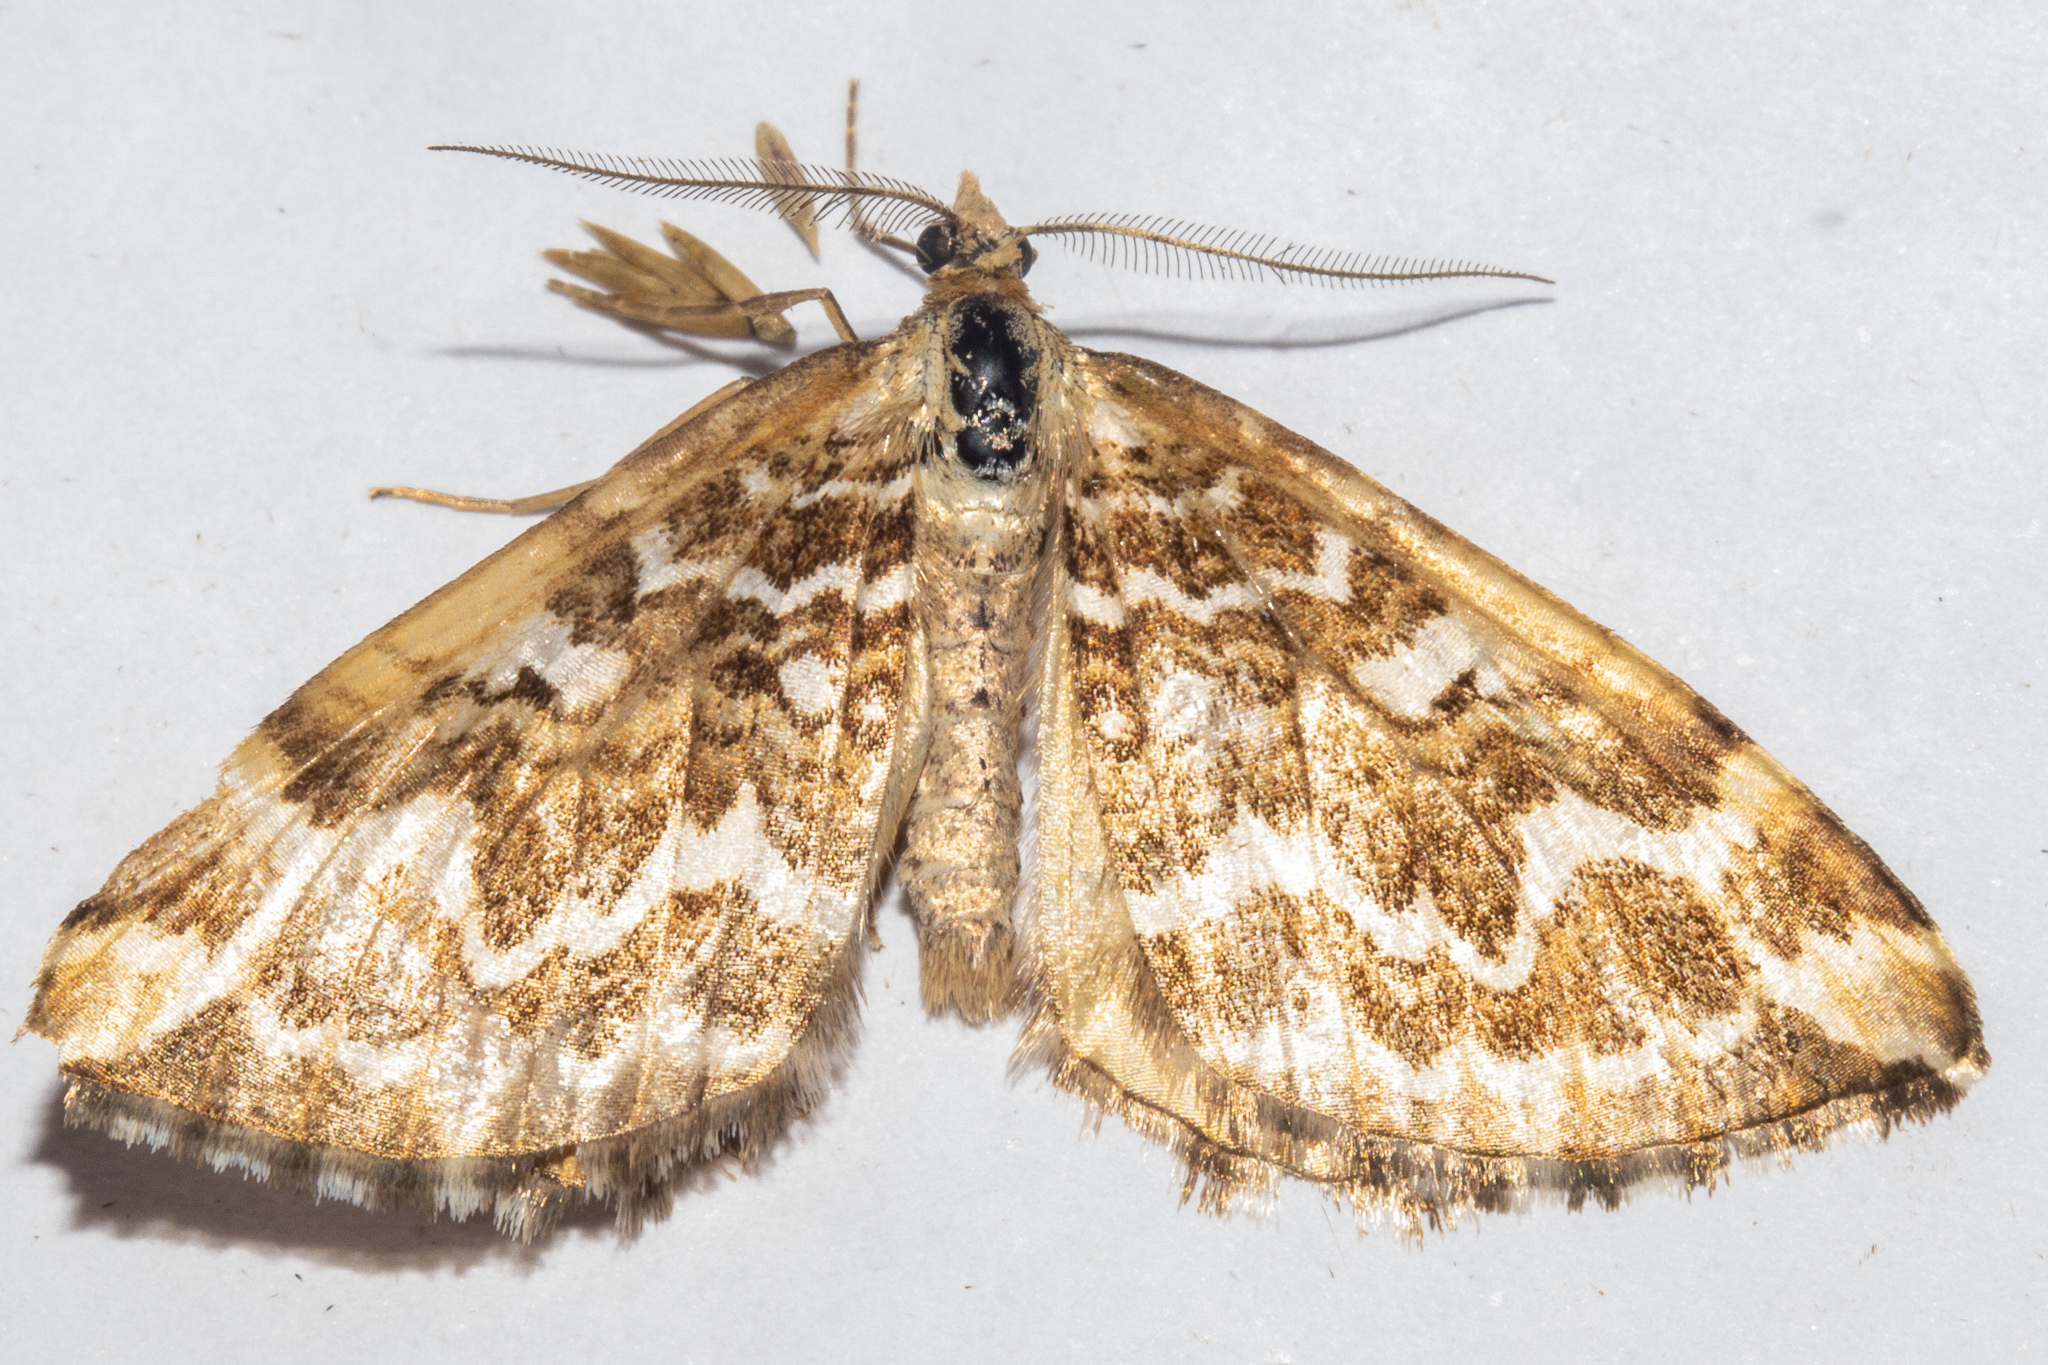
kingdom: Animalia
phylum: Arthropoda
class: Insecta
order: Lepidoptera
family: Geometridae
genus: Asaphodes
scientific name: Asaphodes clarata
